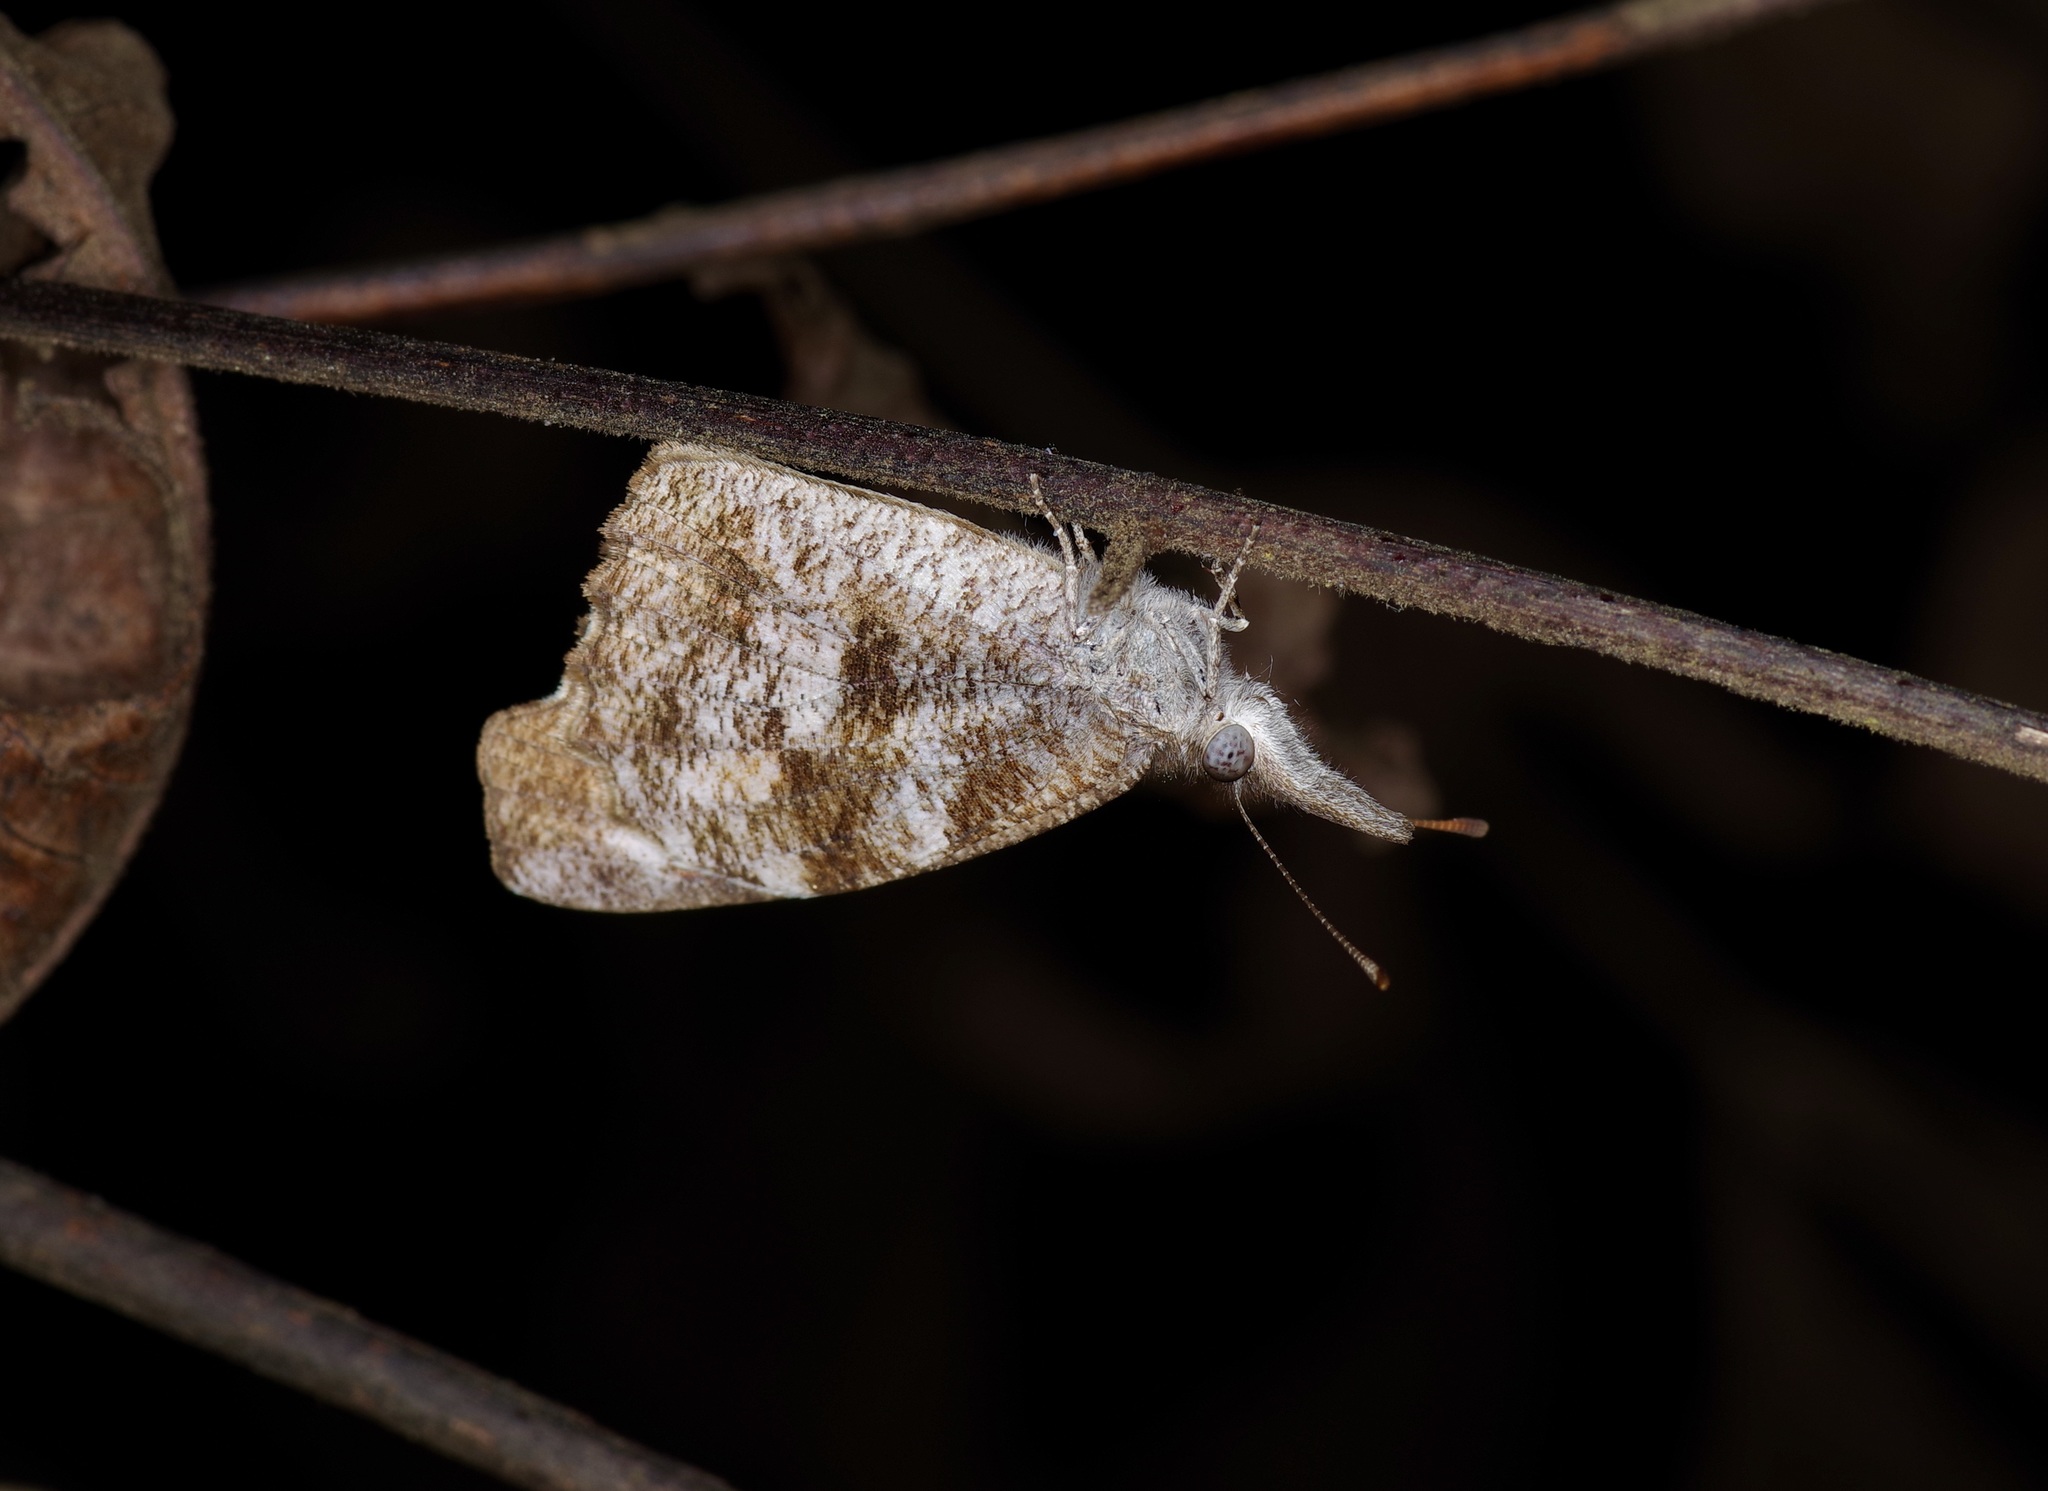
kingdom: Animalia
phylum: Arthropoda
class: Insecta
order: Lepidoptera
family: Nymphalidae
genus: Libytheana
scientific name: Libytheana carinenta
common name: American snout
